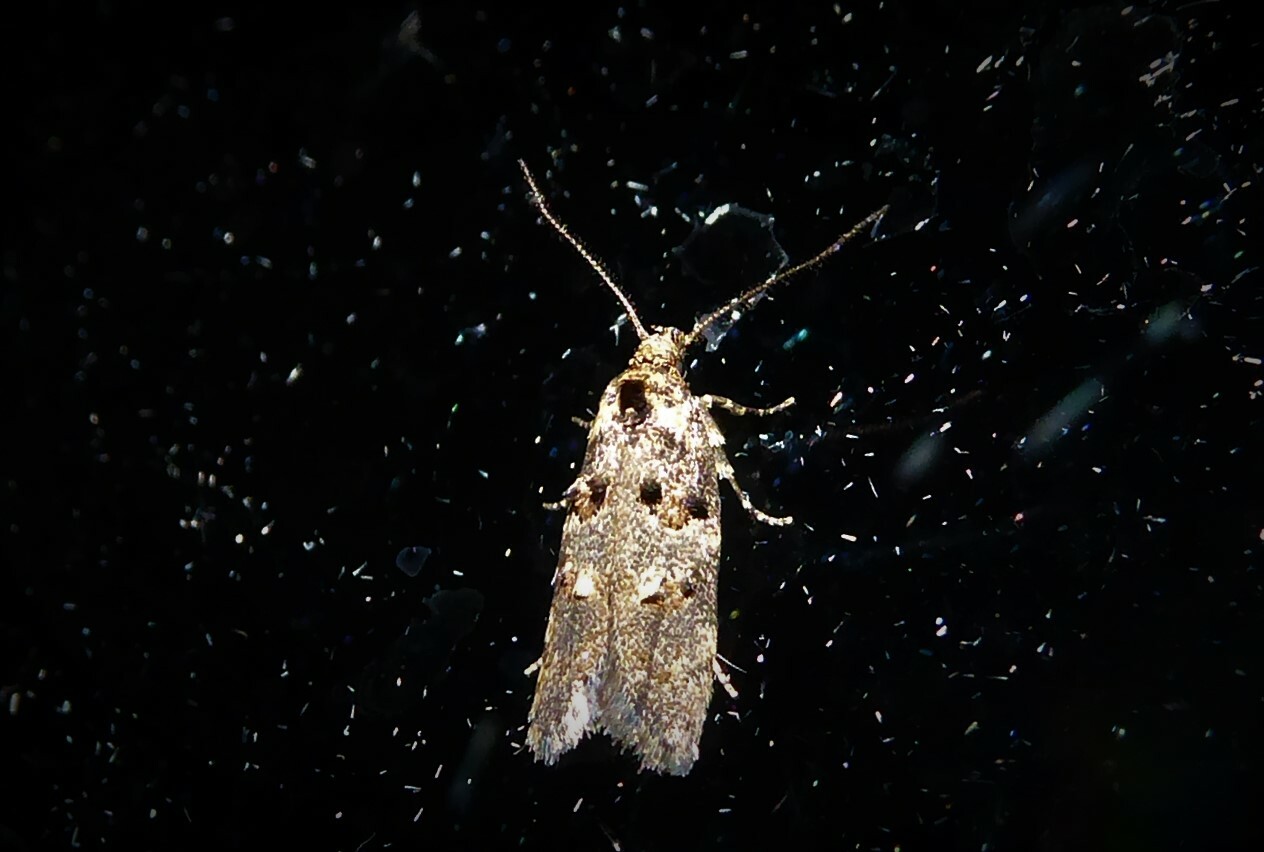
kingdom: Animalia
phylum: Arthropoda
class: Insecta
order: Lepidoptera
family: Oecophoridae
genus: Trachypepla
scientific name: Trachypepla anastrella
